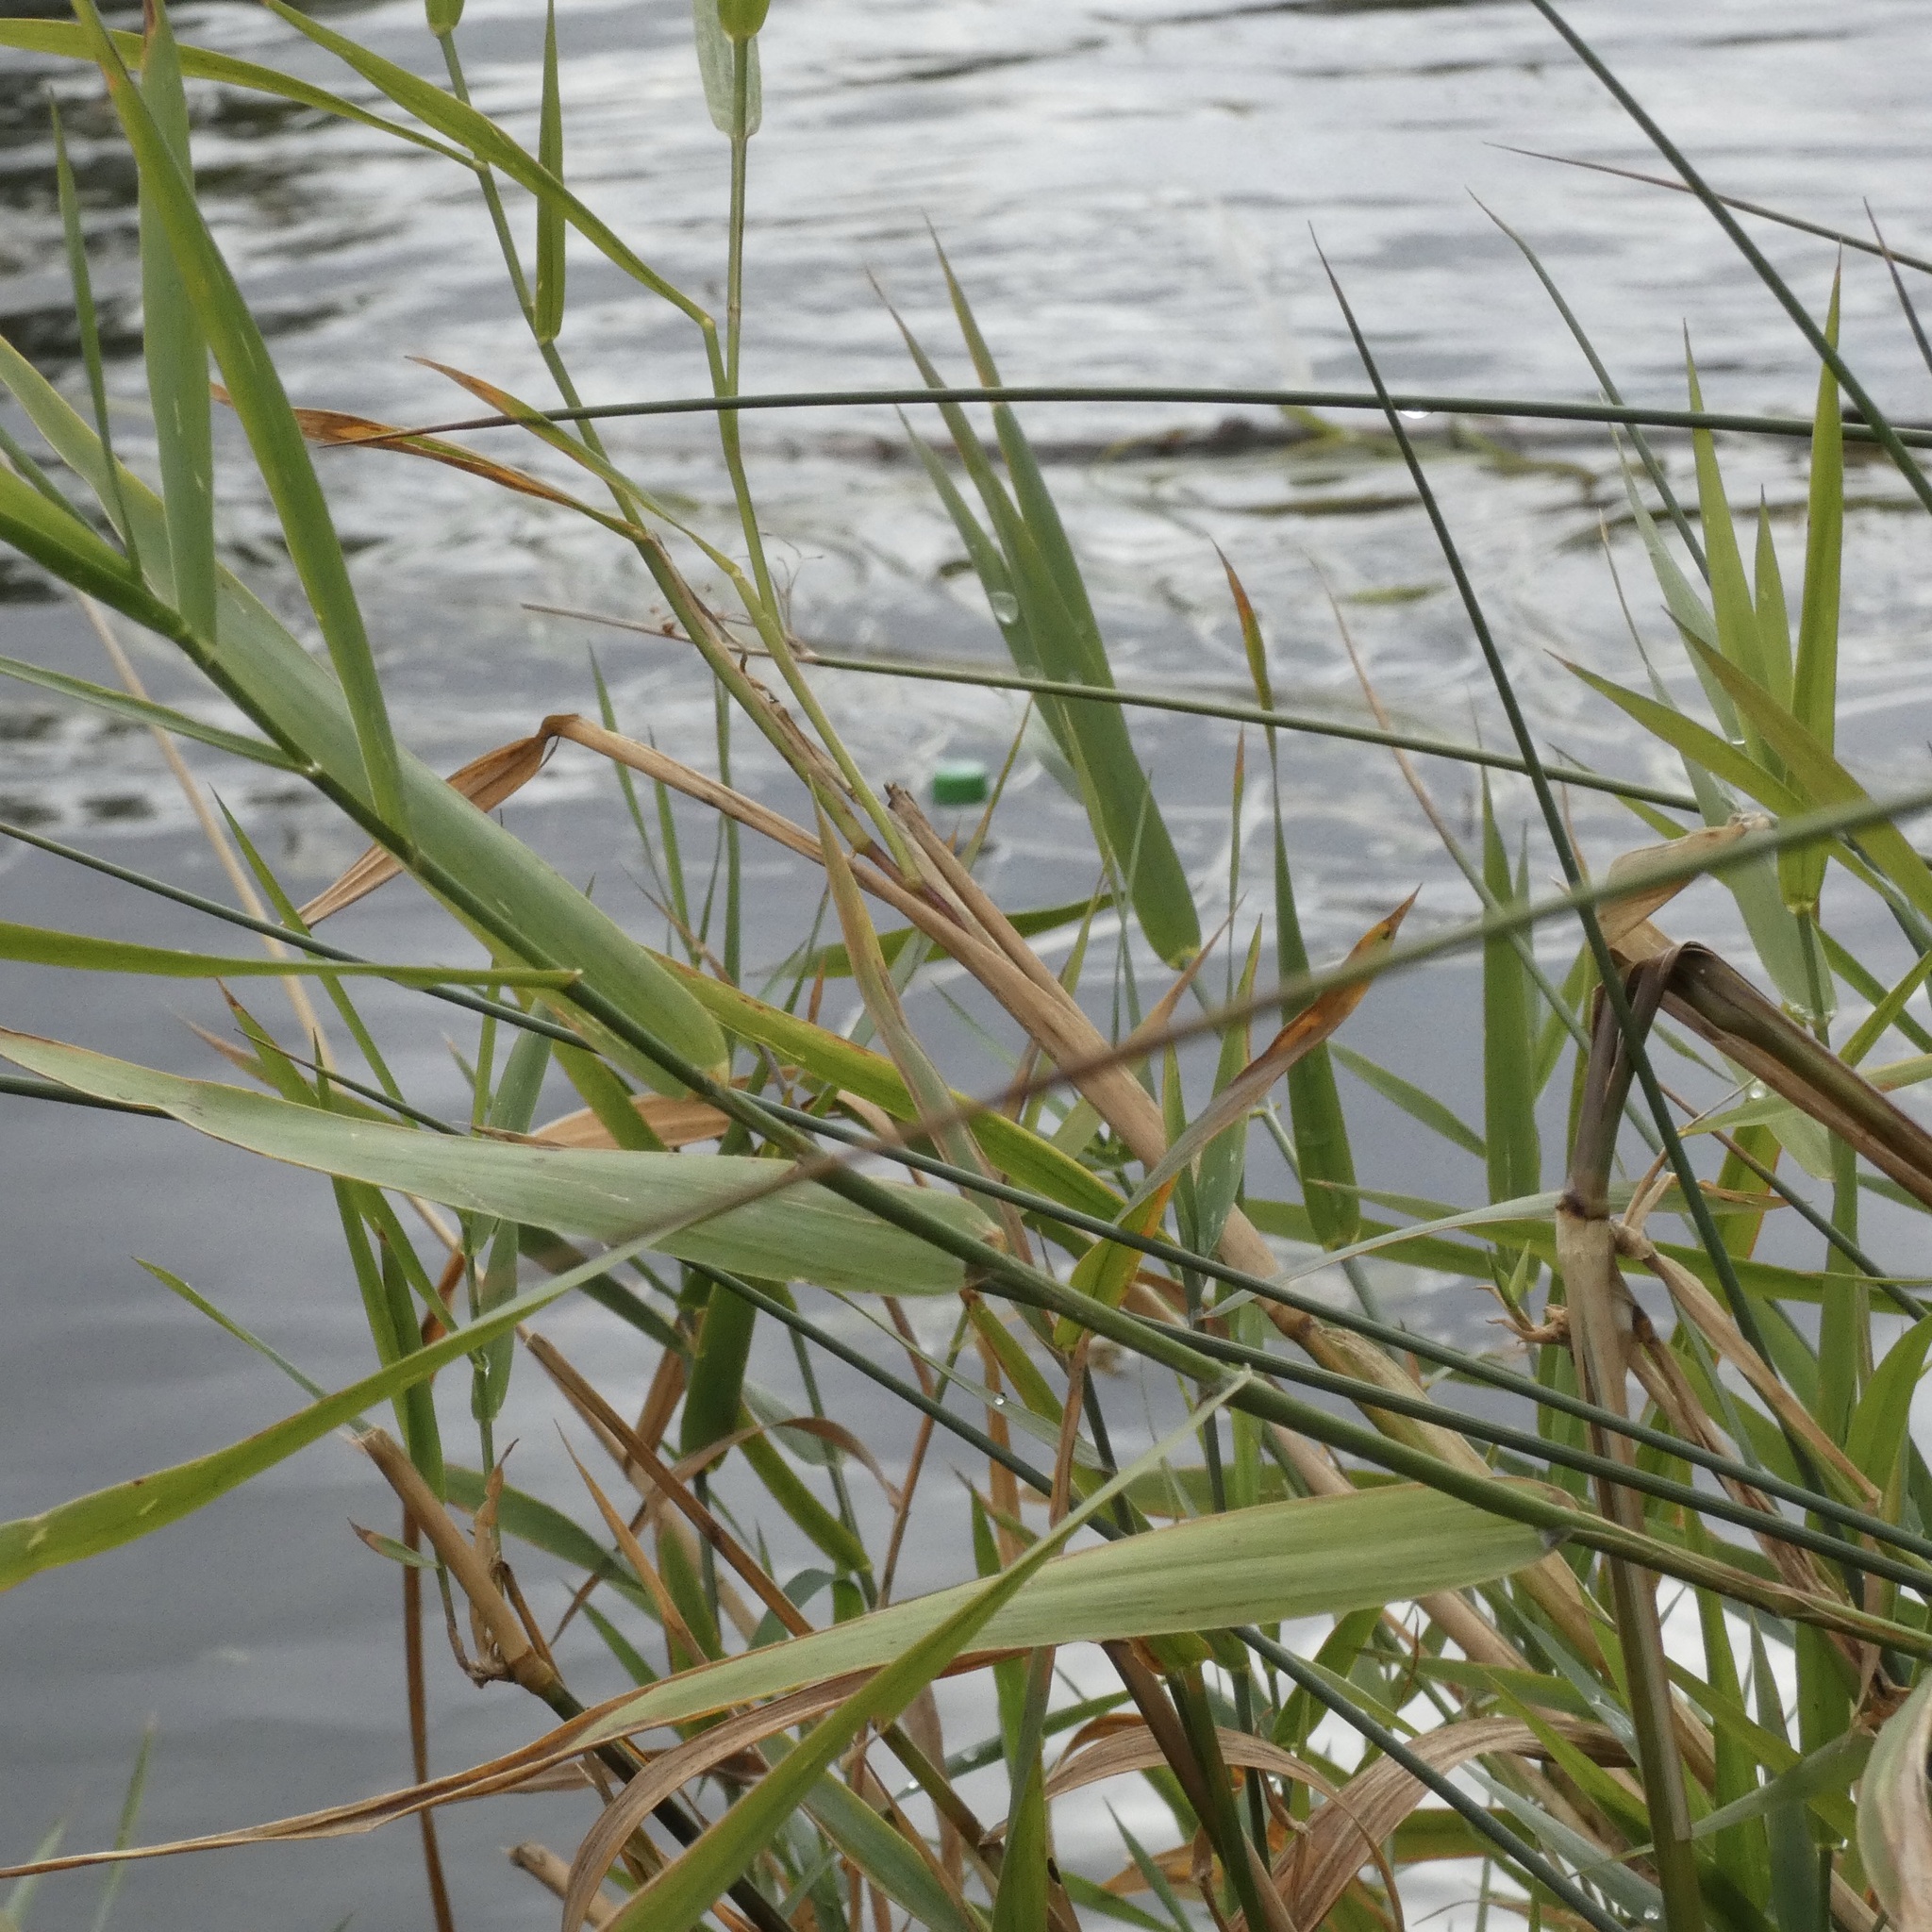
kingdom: Plantae
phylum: Tracheophyta
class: Liliopsida
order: Poales
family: Poaceae
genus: Phalaris
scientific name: Phalaris arundinacea
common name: Reed canary-grass
